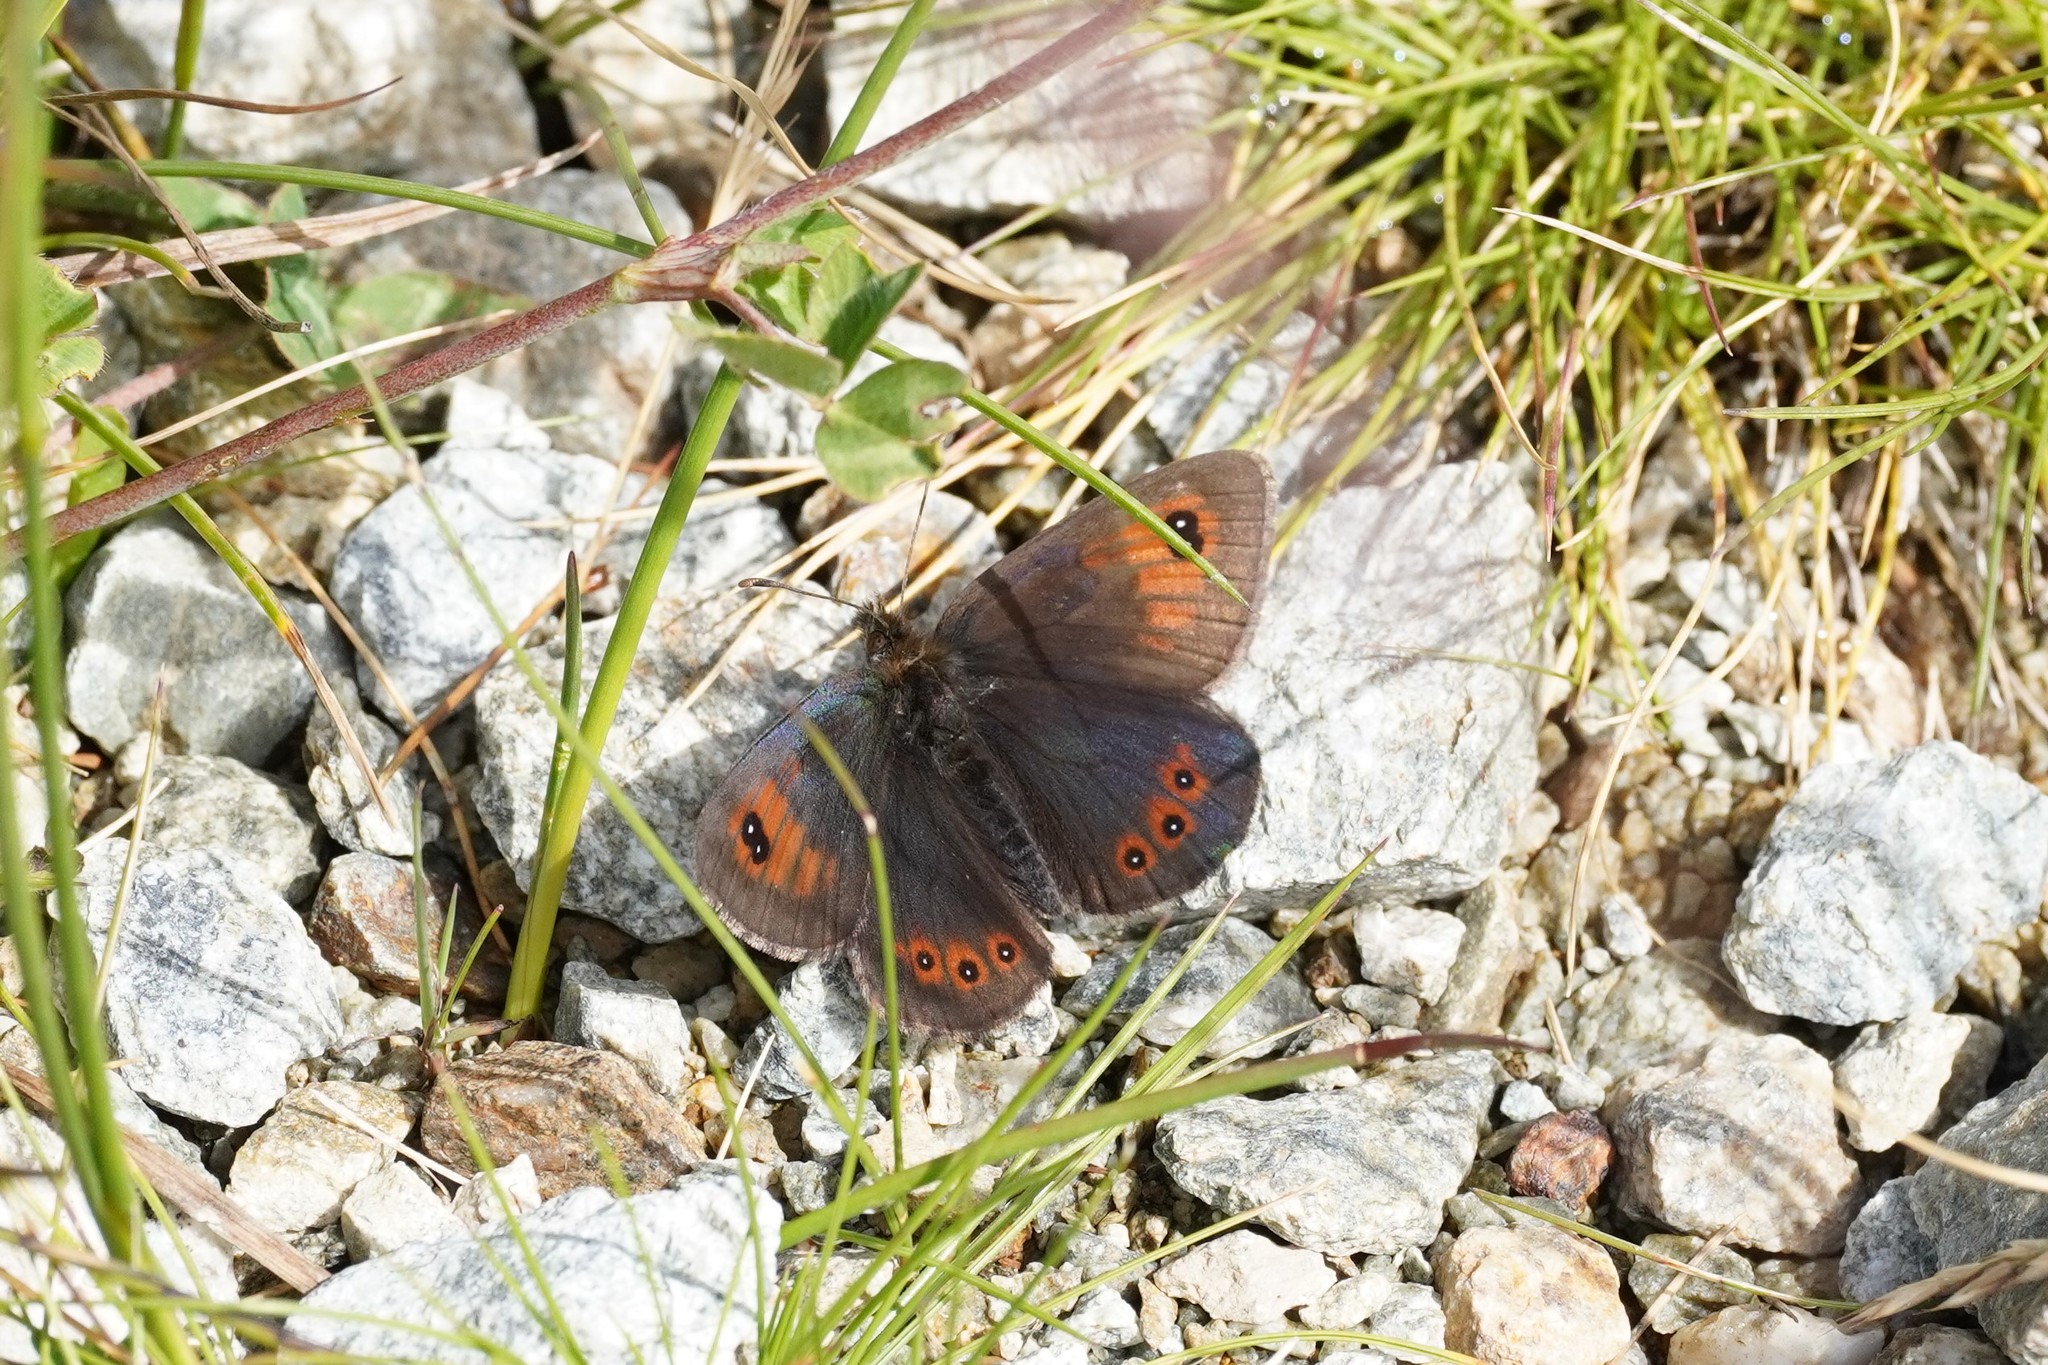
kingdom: Animalia
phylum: Arthropoda
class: Insecta
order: Lepidoptera
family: Nymphalidae
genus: Erebia
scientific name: Erebia cassioides
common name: Common brassy ringlet
